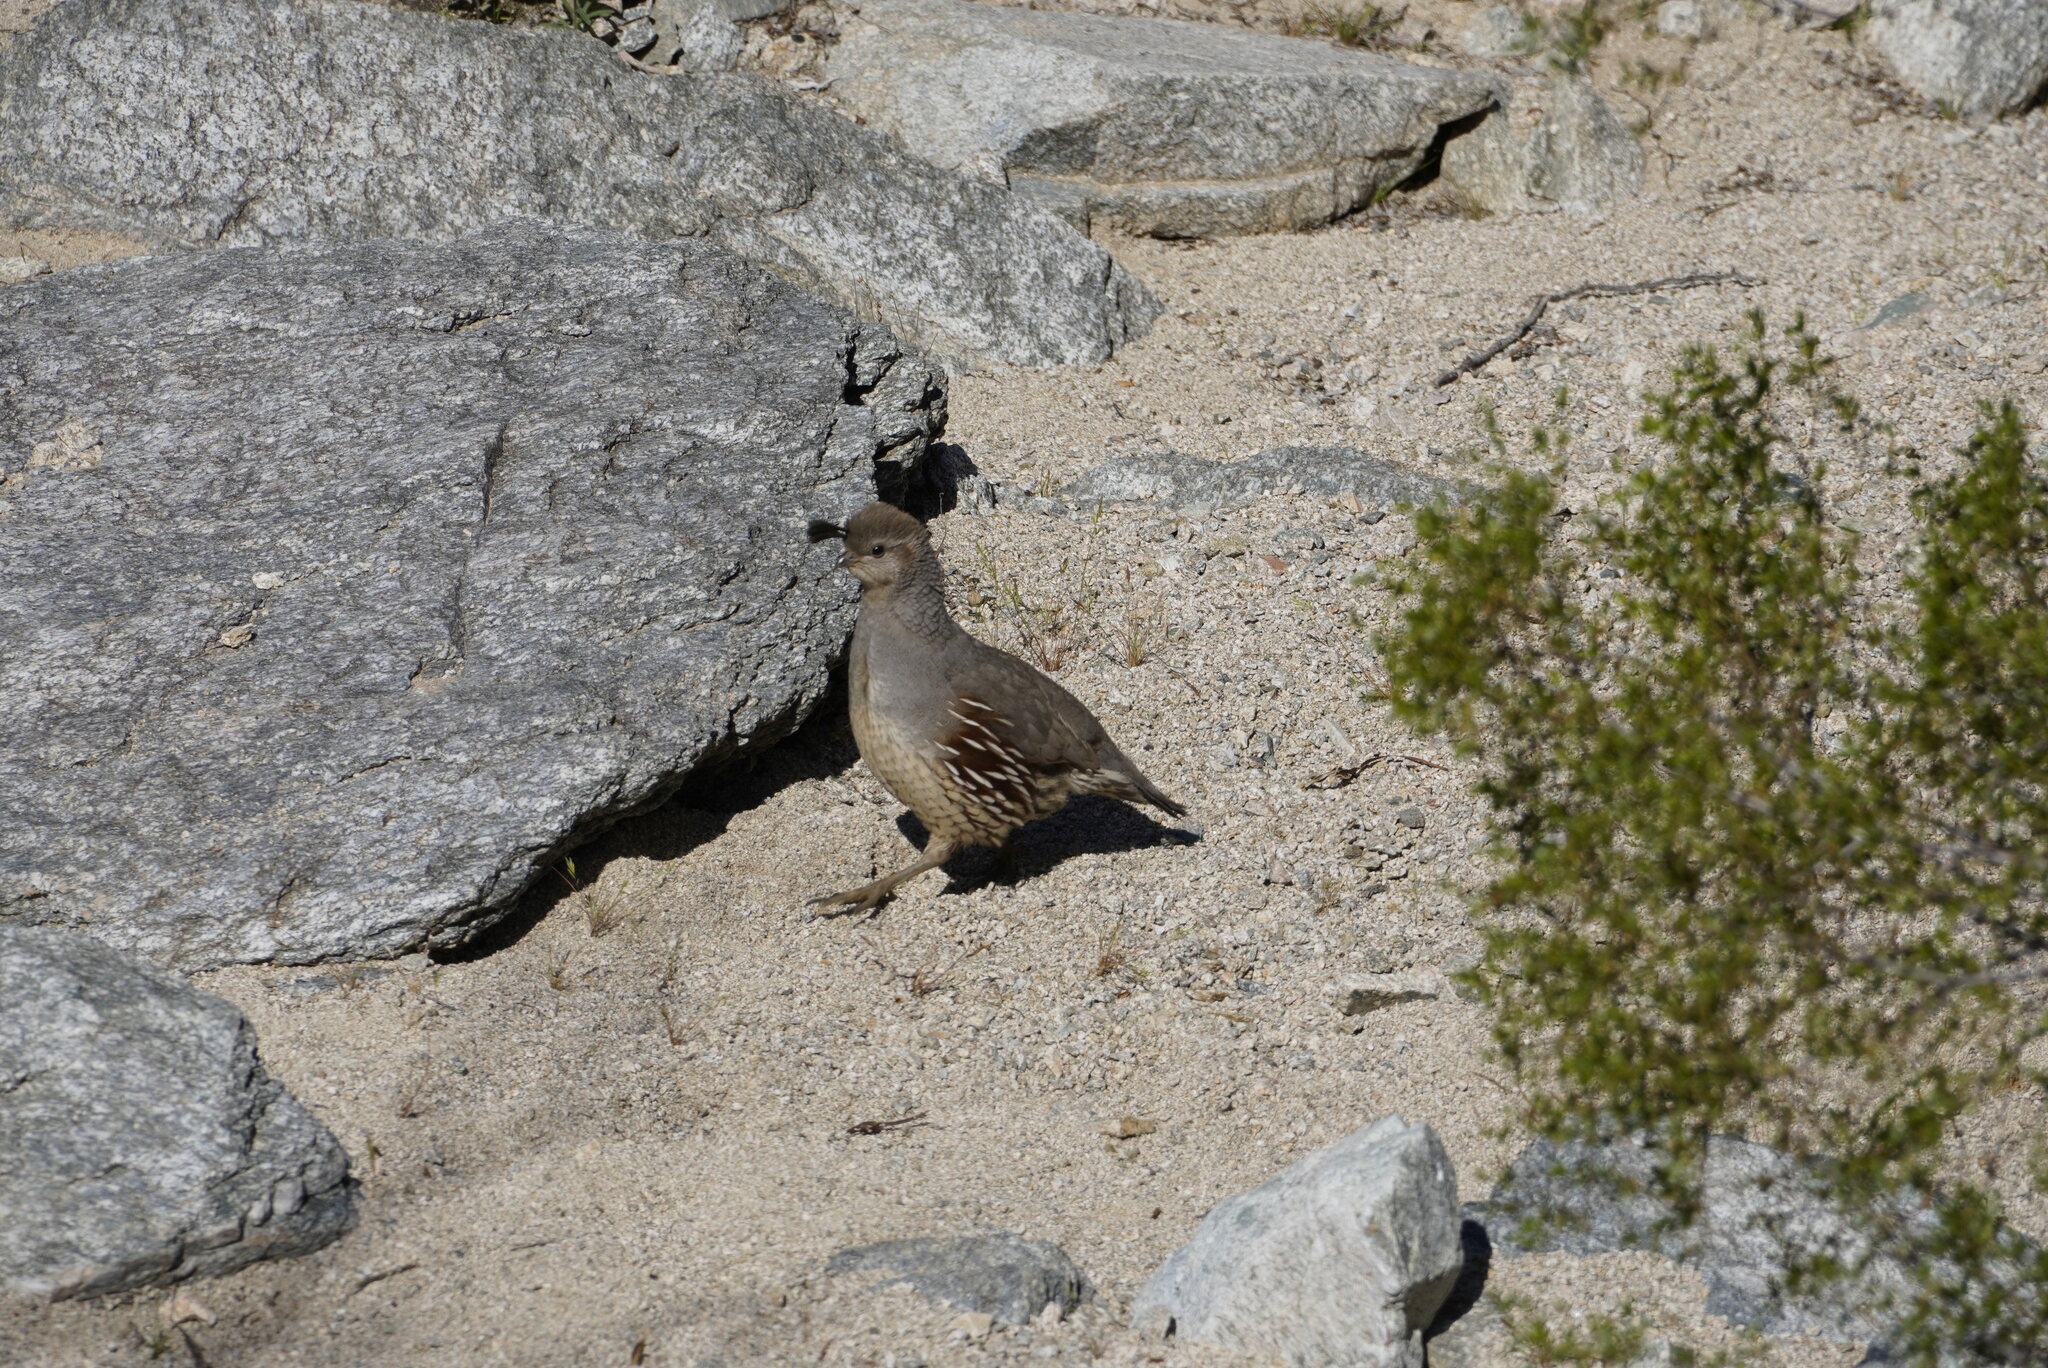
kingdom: Animalia
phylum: Chordata
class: Aves
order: Galliformes
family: Odontophoridae
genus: Callipepla
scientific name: Callipepla gambelii
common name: Gambel's quail
